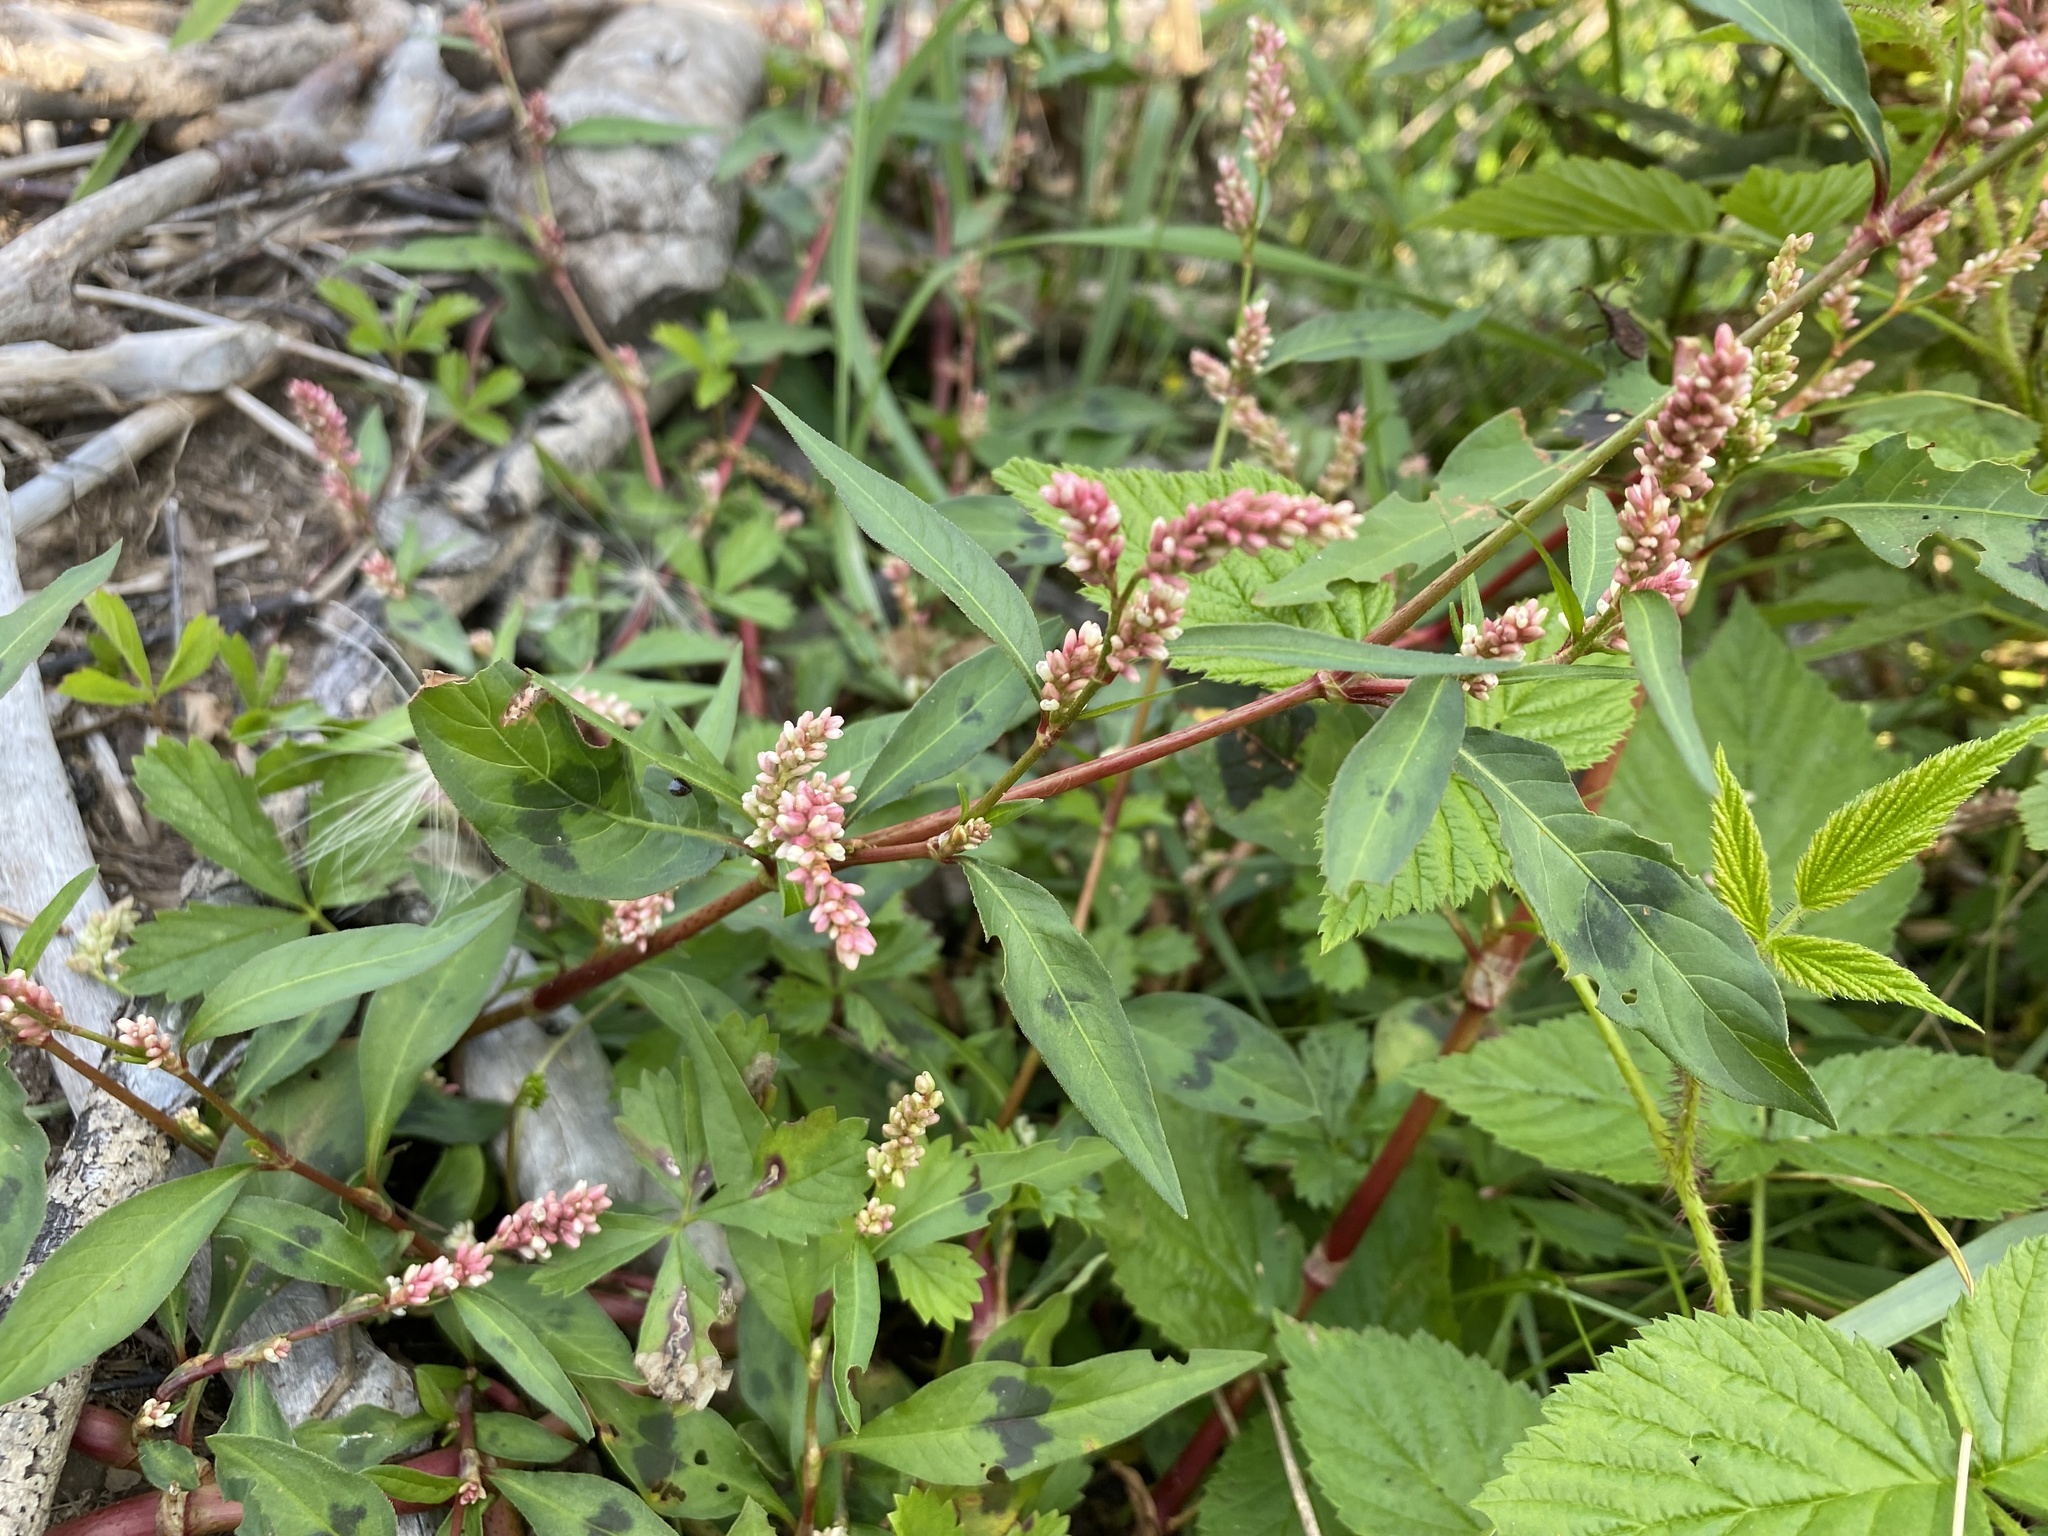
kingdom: Plantae
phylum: Tracheophyta
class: Magnoliopsida
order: Caryophyllales
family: Polygonaceae
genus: Persicaria
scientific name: Persicaria maculosa
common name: Redshank
